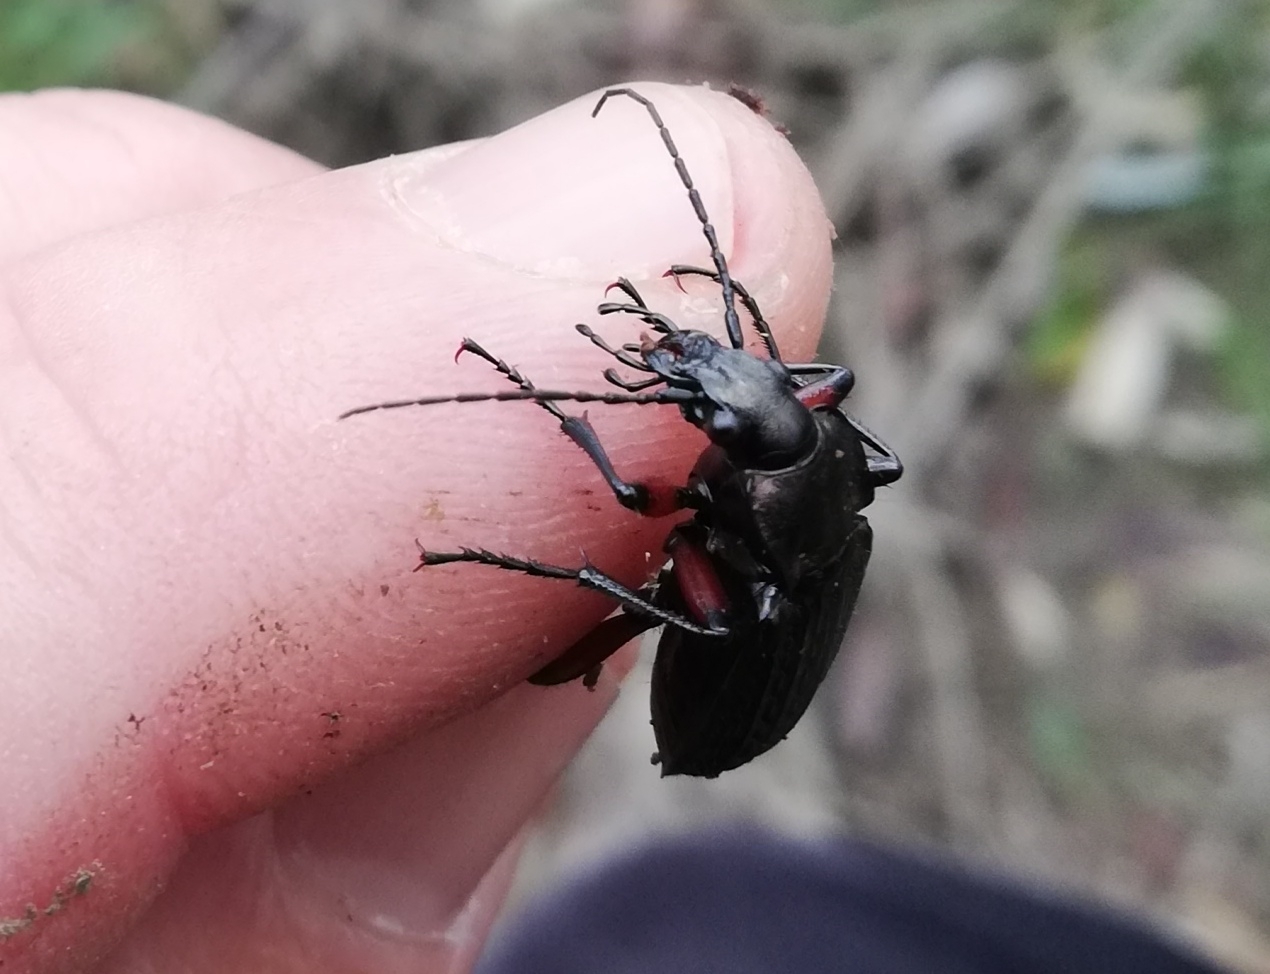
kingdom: Animalia
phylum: Arthropoda
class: Insecta
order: Coleoptera
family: Carabidae
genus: Carabus
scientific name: Carabus granulatus
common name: Granulate ground beetle
